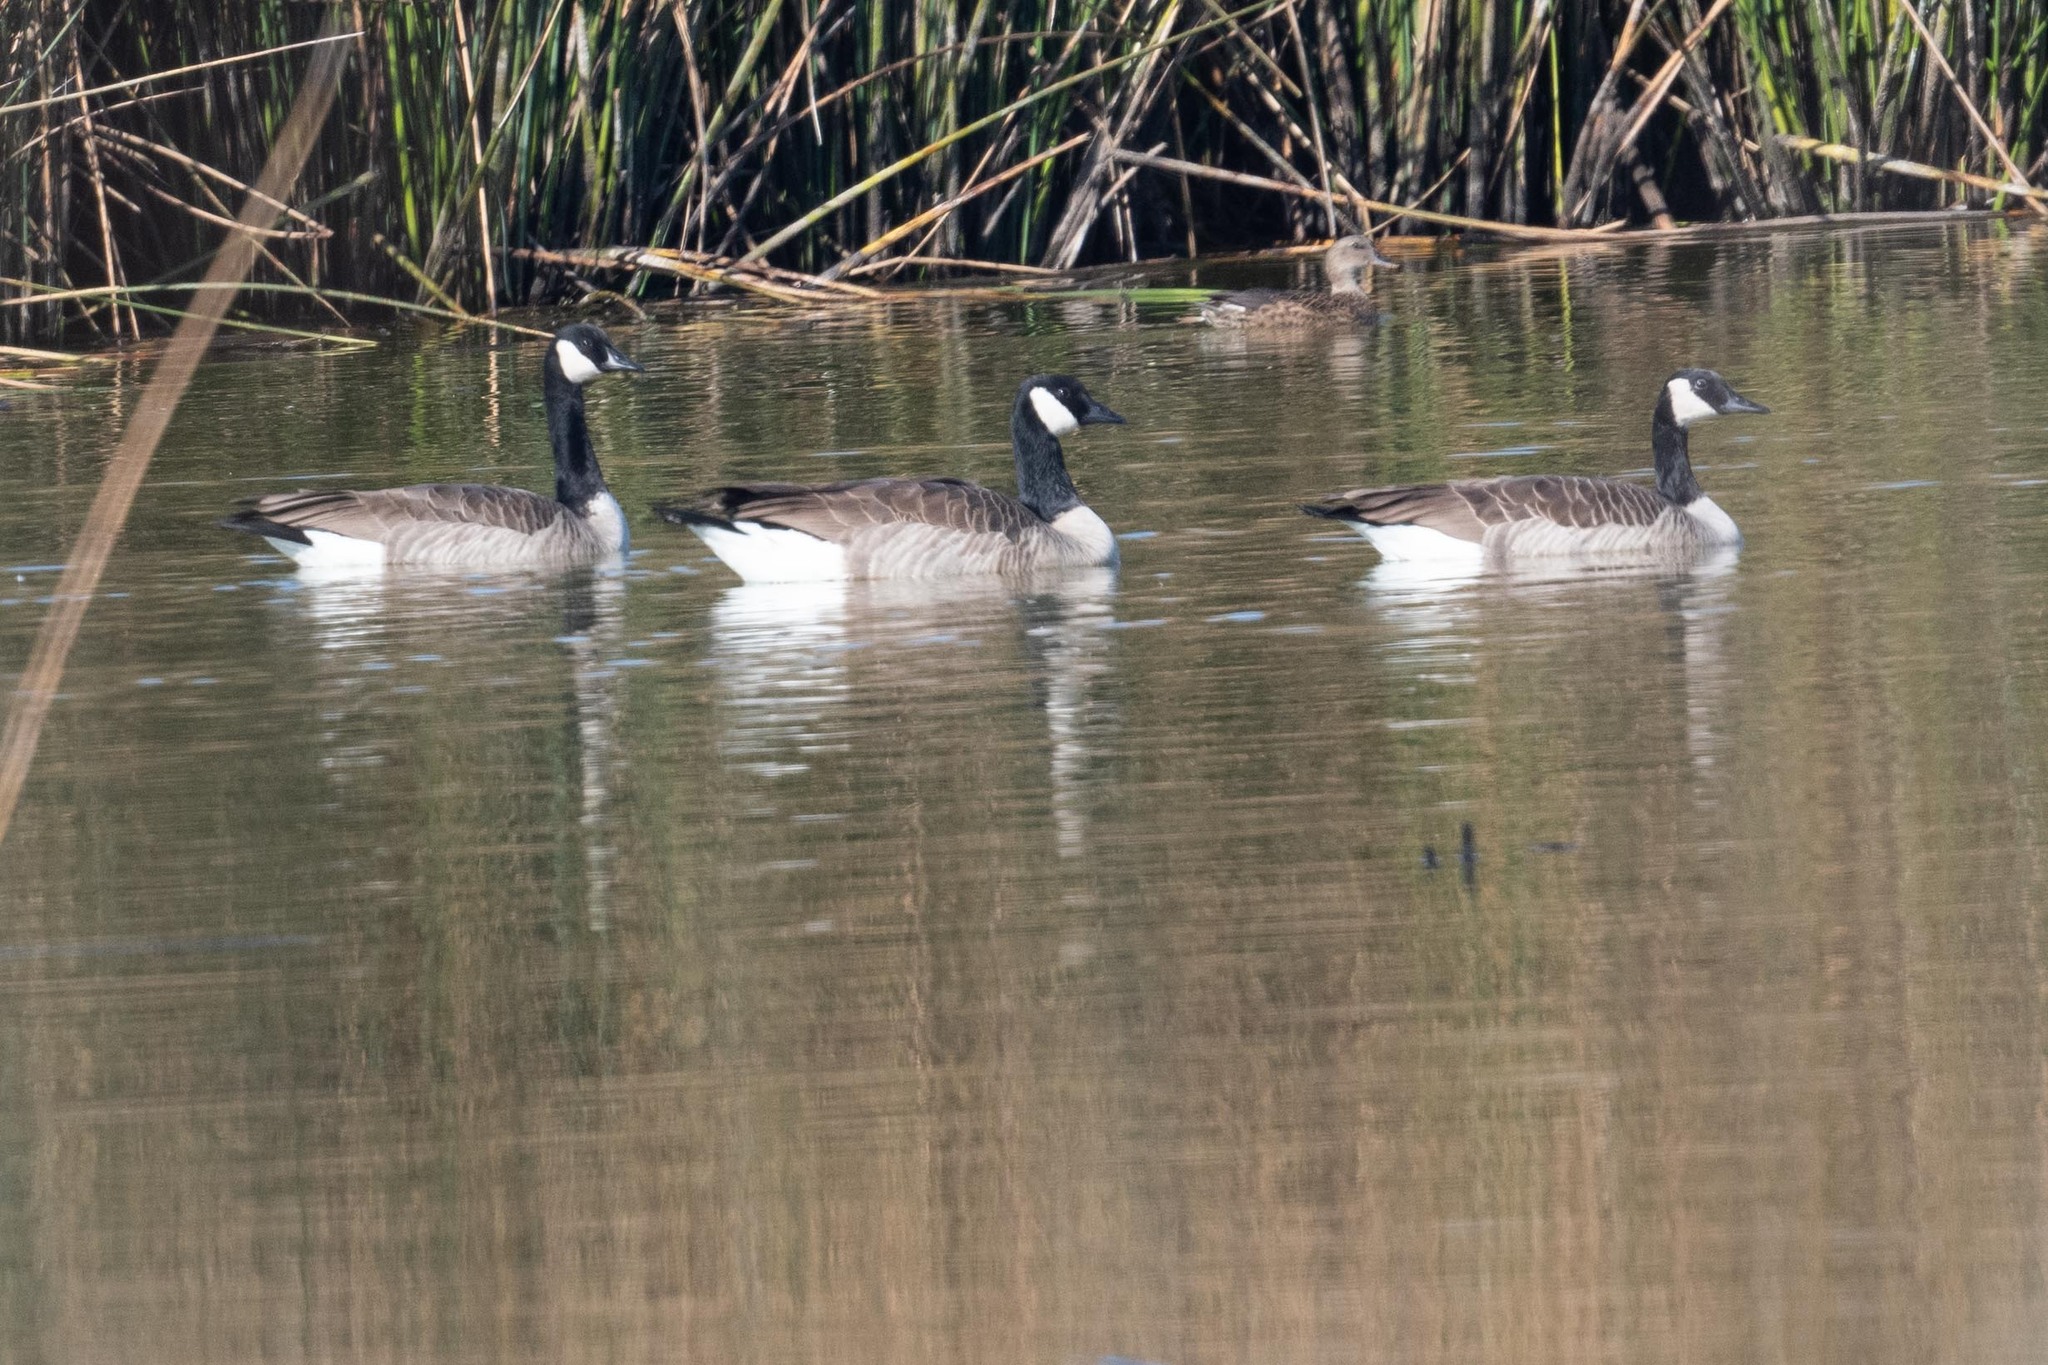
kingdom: Animalia
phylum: Chordata
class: Aves
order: Anseriformes
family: Anatidae
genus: Branta
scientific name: Branta canadensis
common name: Canada goose
